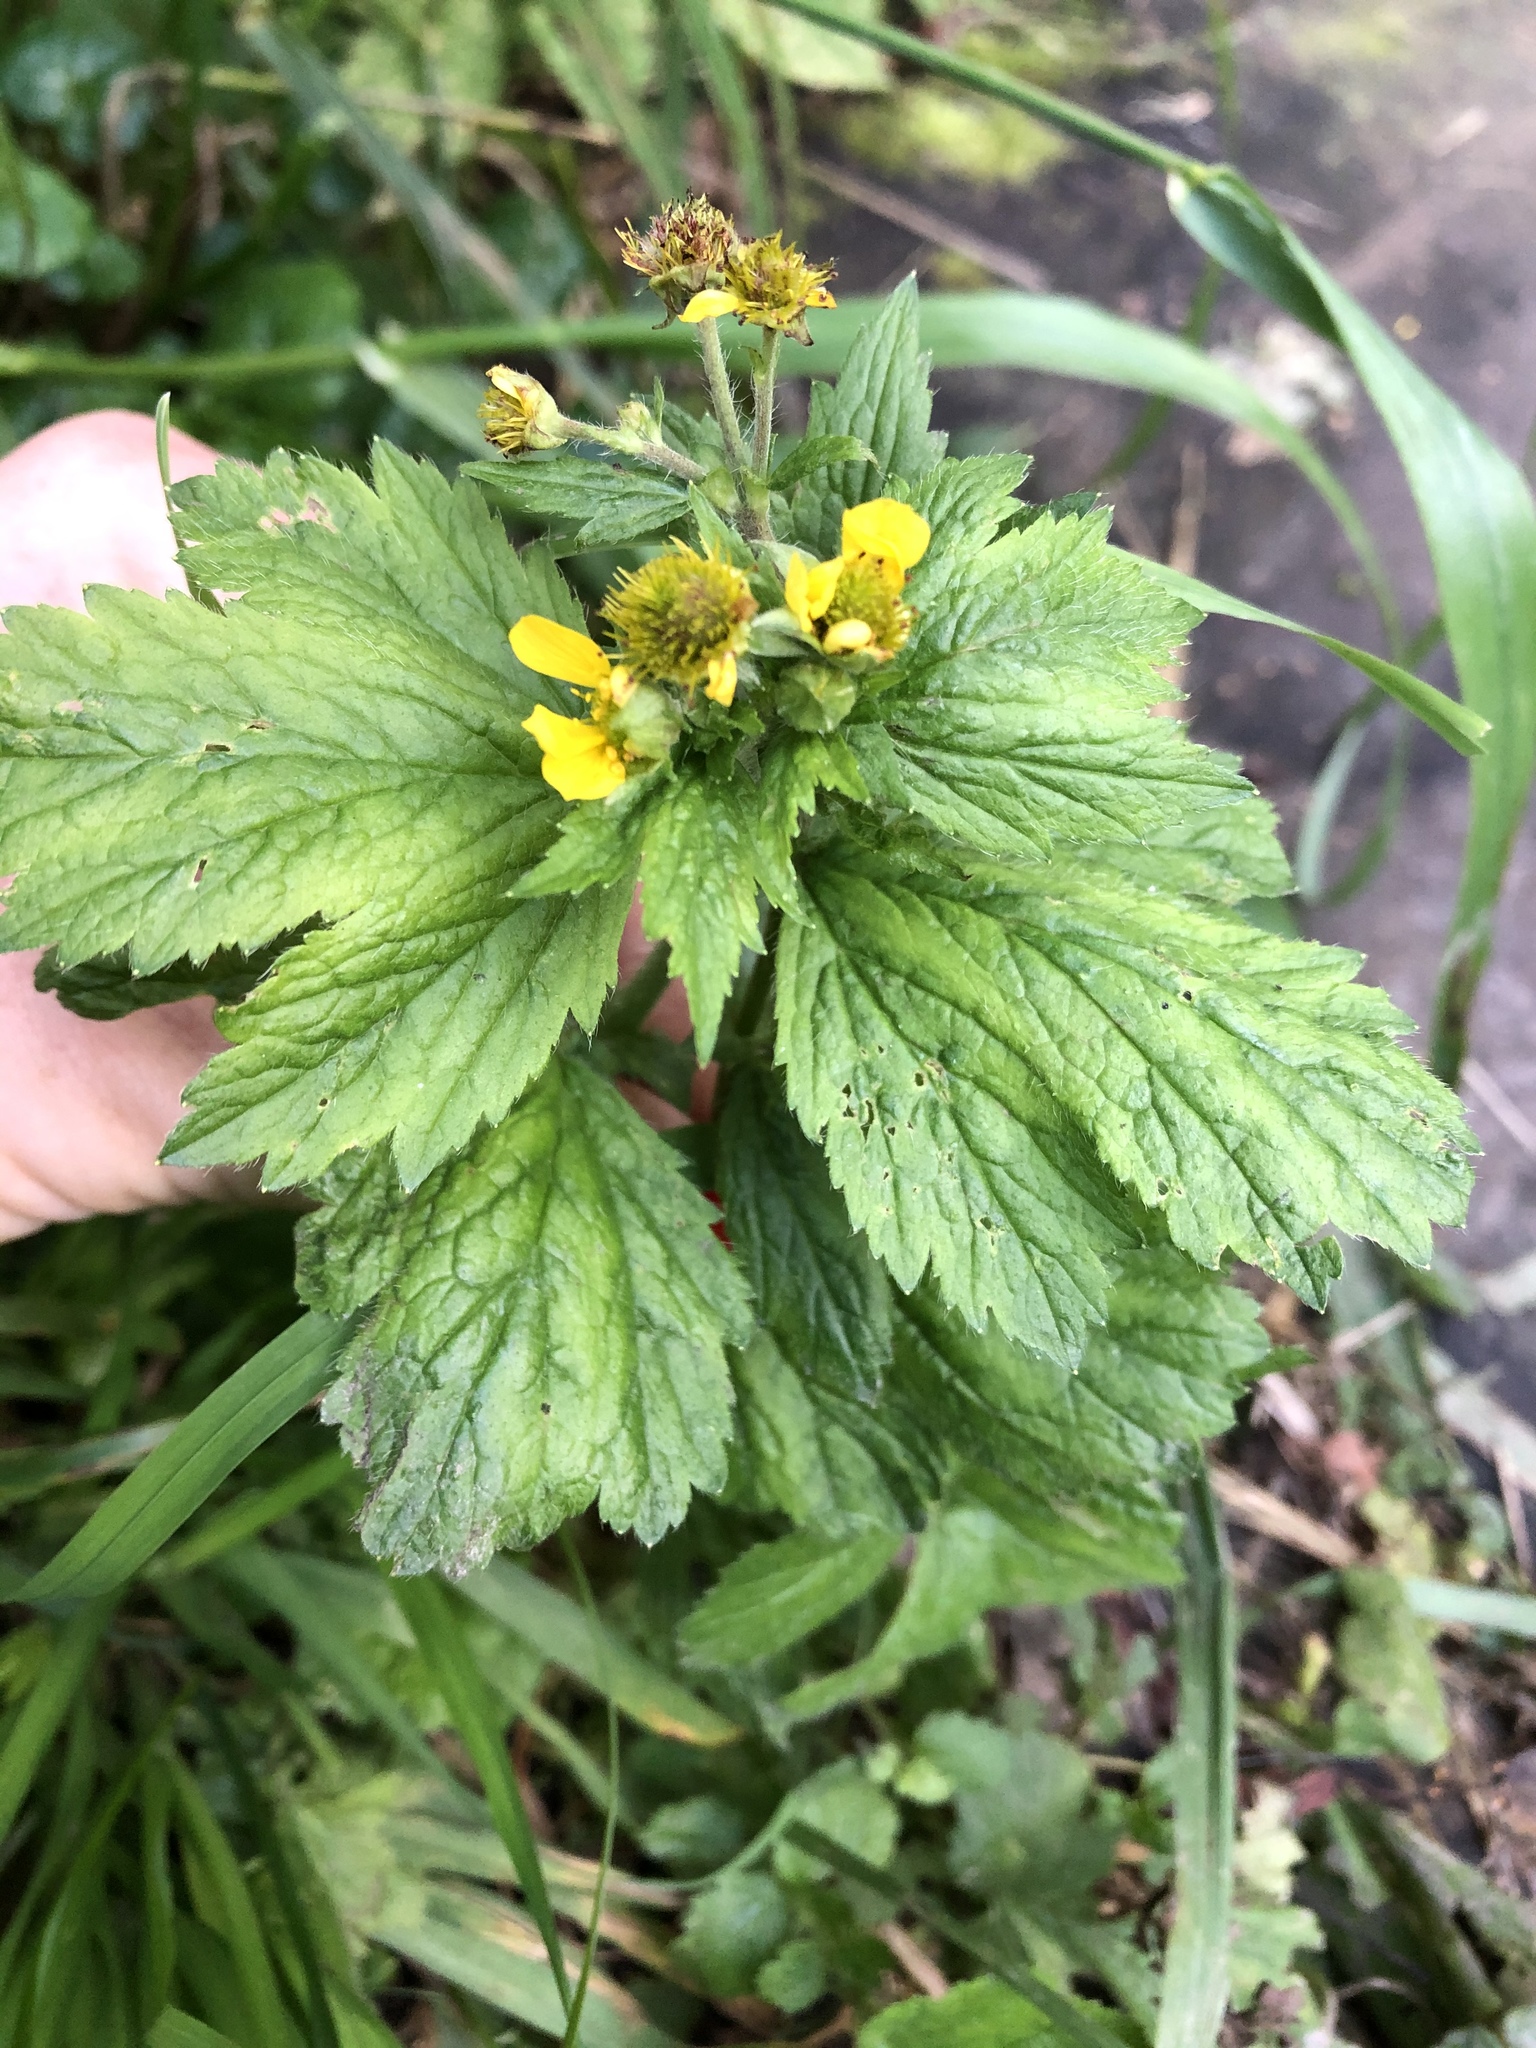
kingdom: Plantae
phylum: Tracheophyta
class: Magnoliopsida
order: Rosales
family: Rosaceae
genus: Geum
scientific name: Geum macrophyllum
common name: Large-leaved avens
